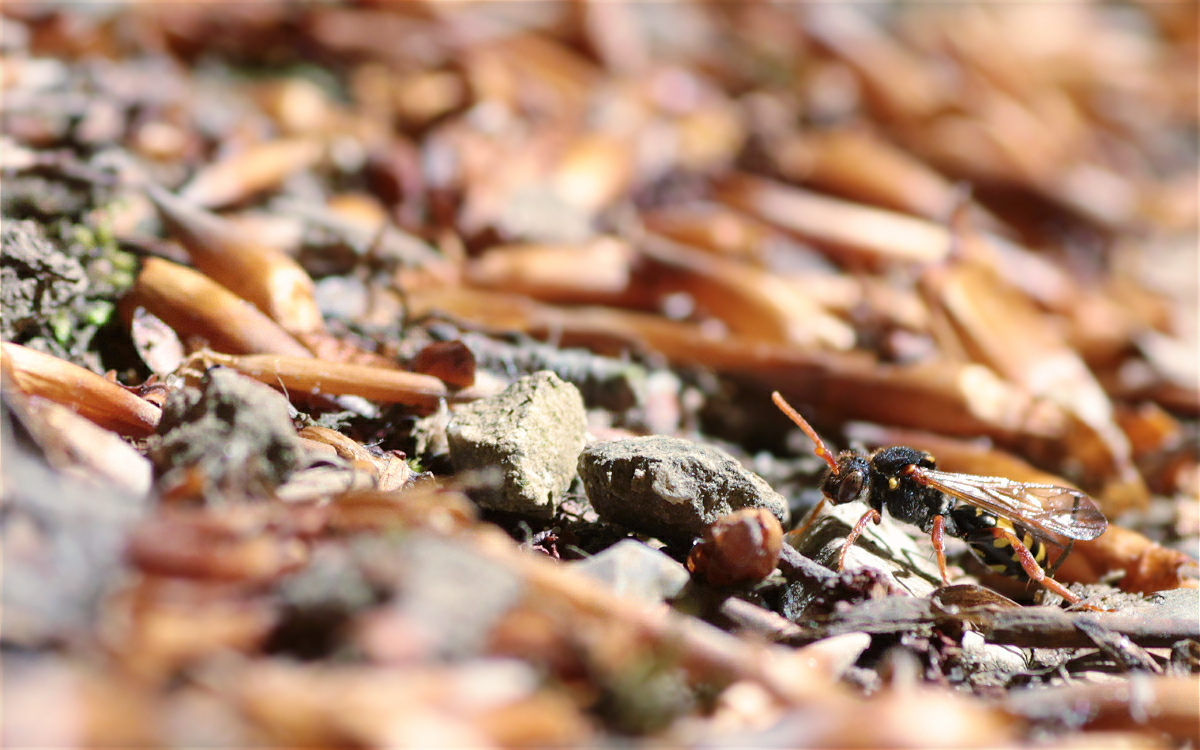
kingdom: Animalia
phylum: Arthropoda
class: Insecta
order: Hymenoptera
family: Apidae
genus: Nomada
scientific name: Nomada marshamella
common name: Marsham's nomad bee
